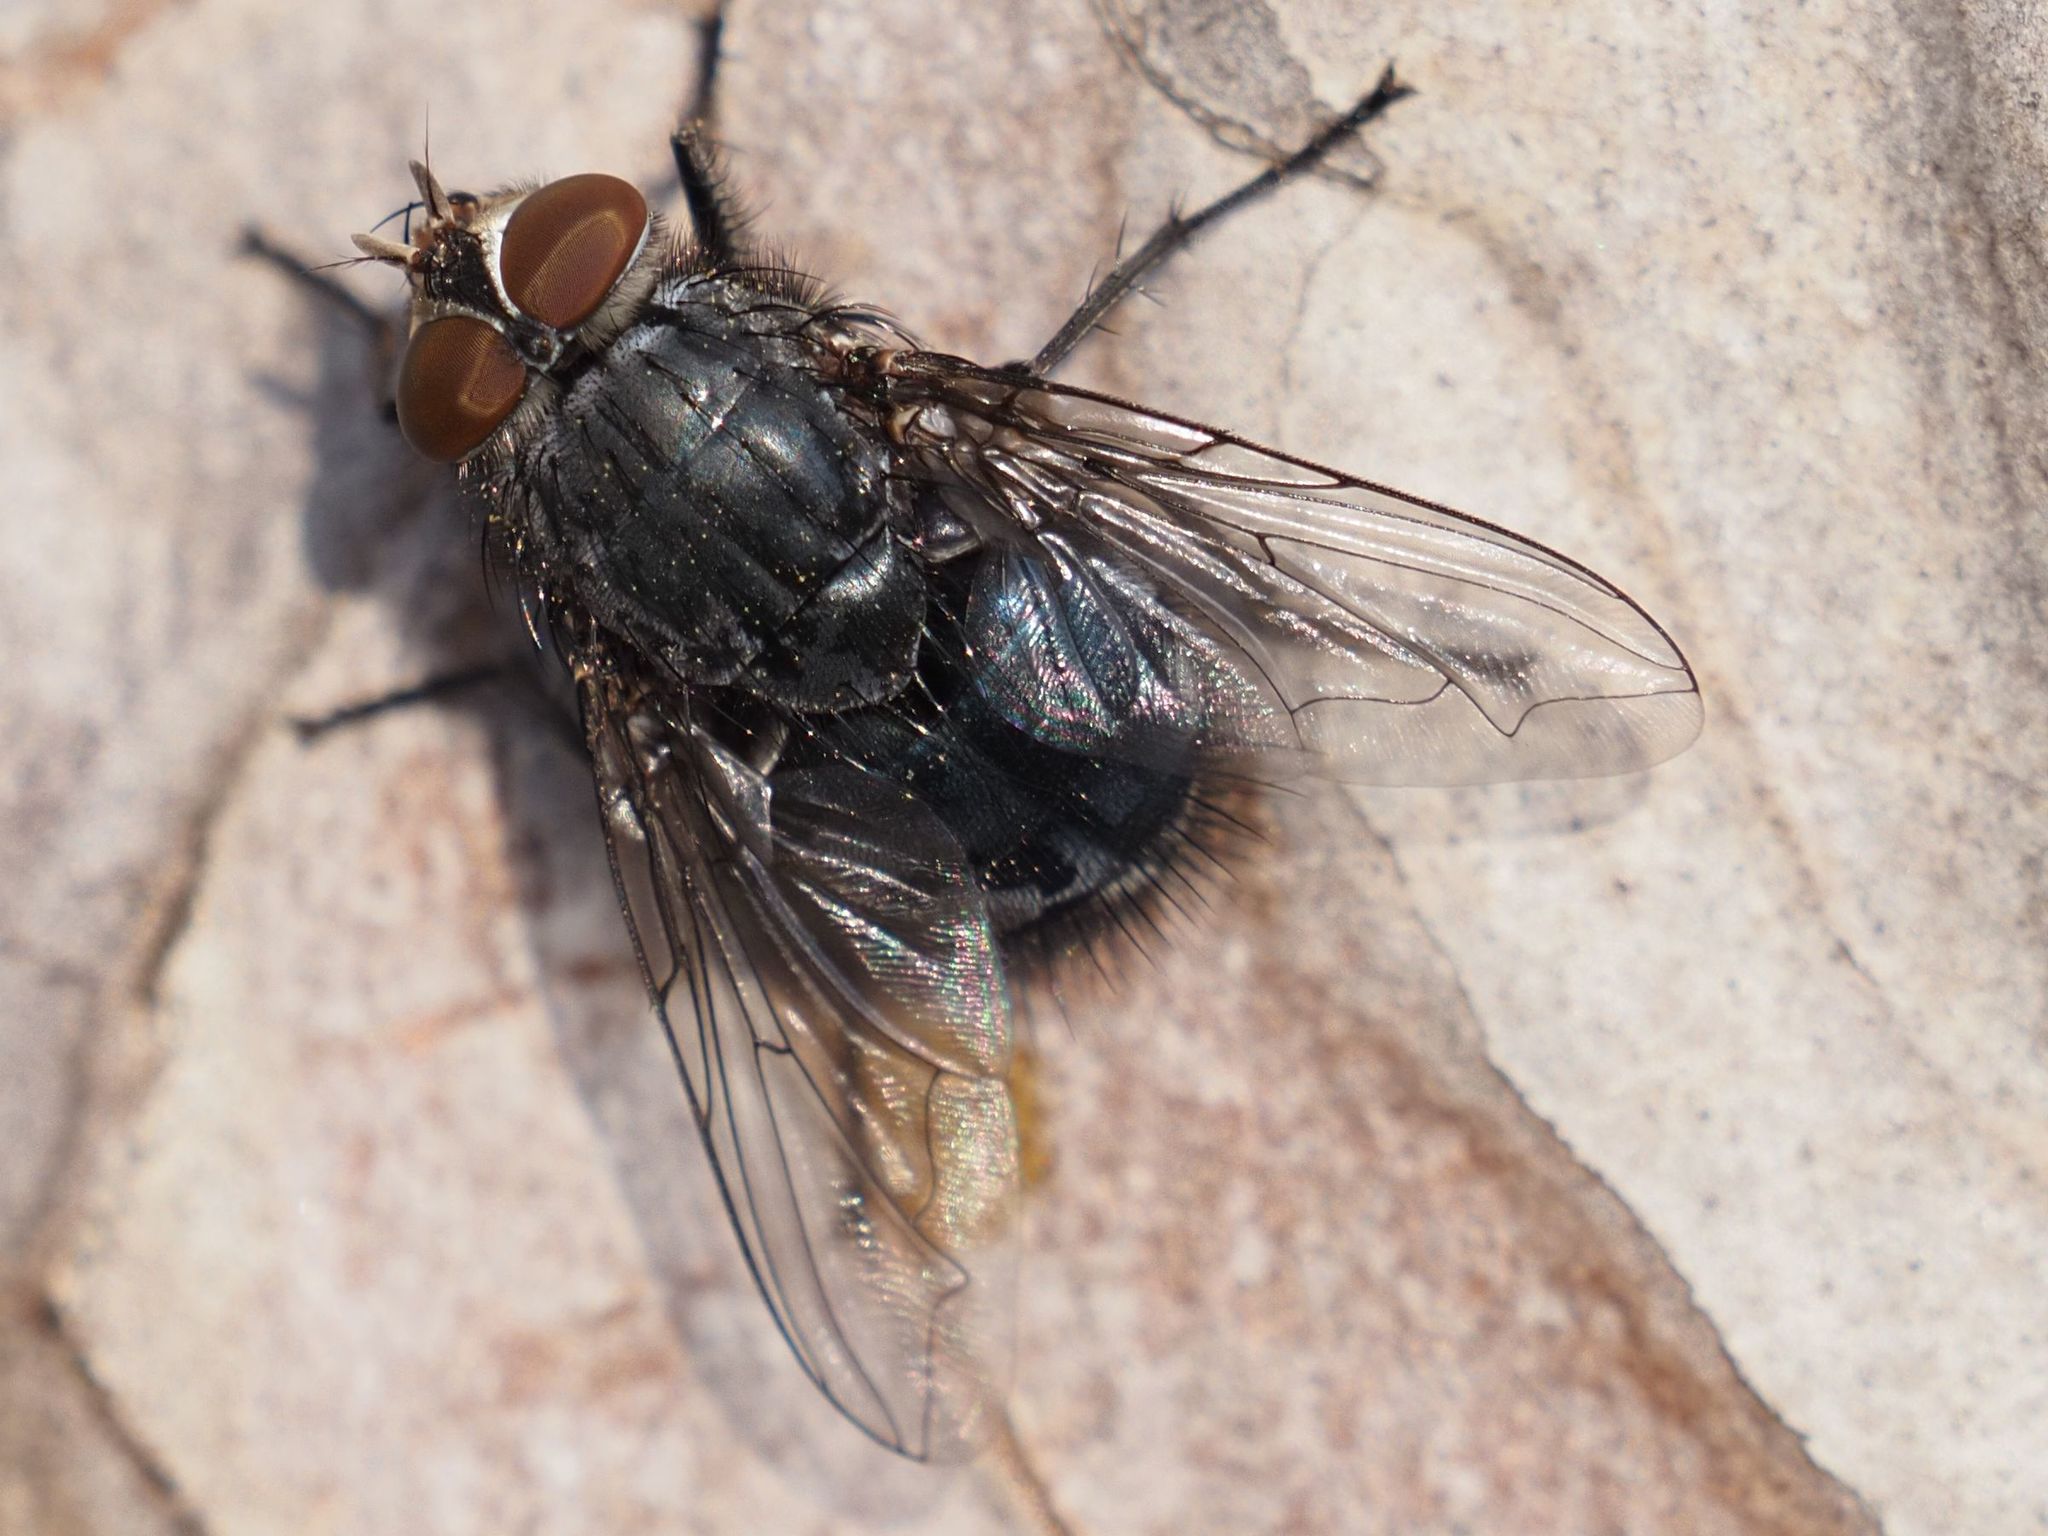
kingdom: Animalia
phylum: Arthropoda
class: Insecta
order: Diptera
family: Calliphoridae
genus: Calliphora
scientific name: Calliphora vicina
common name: Common blow flie
